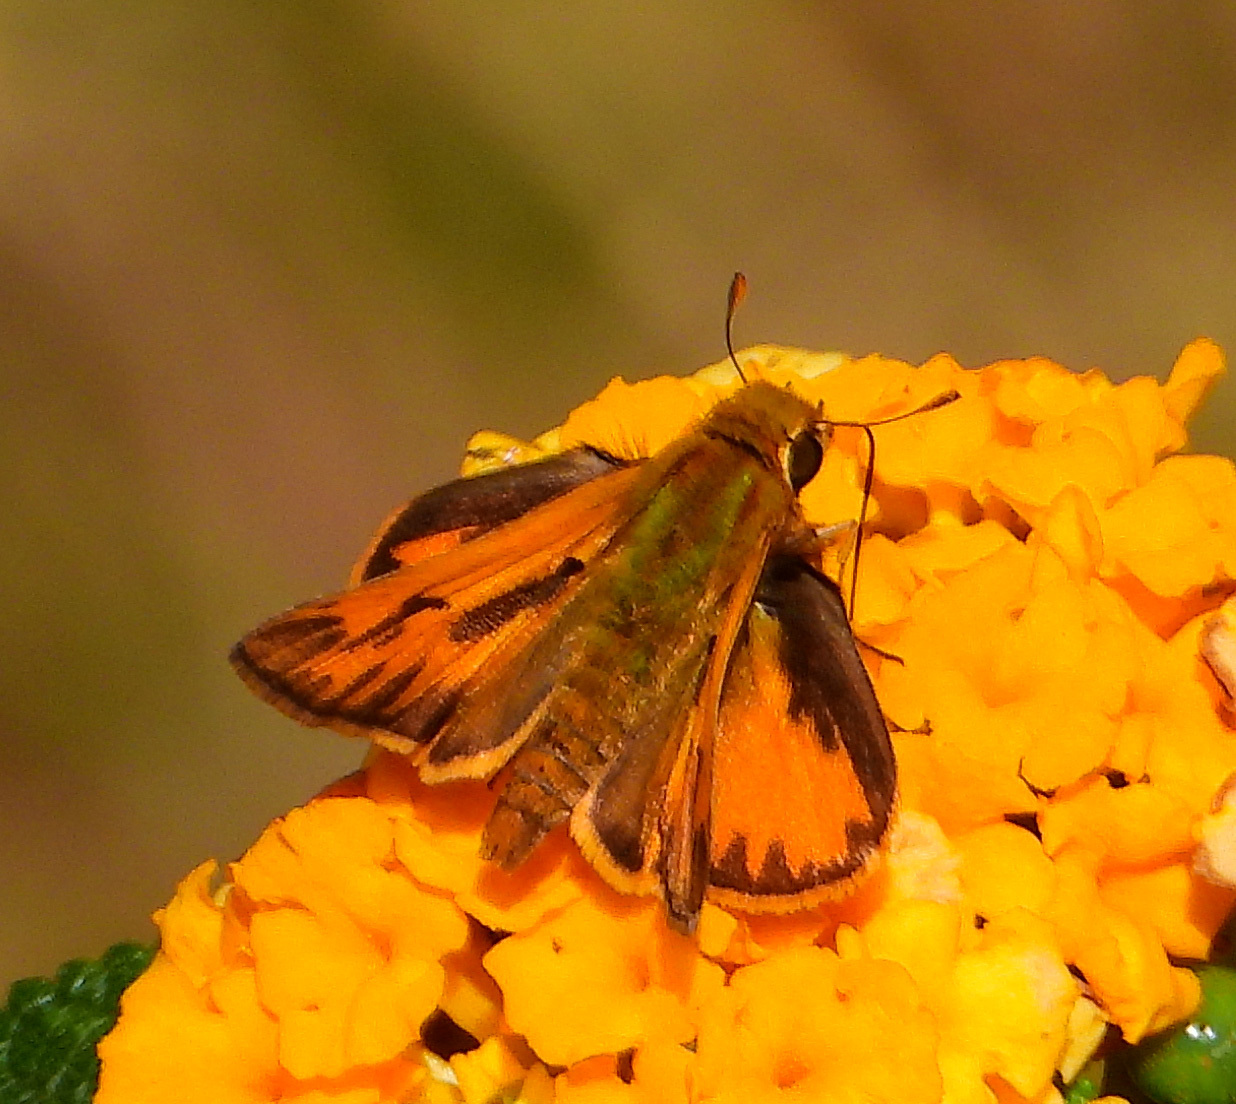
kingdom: Animalia
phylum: Arthropoda
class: Insecta
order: Lepidoptera
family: Hesperiidae
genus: Hylephila
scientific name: Hylephila phyleus
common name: Fiery skipper
